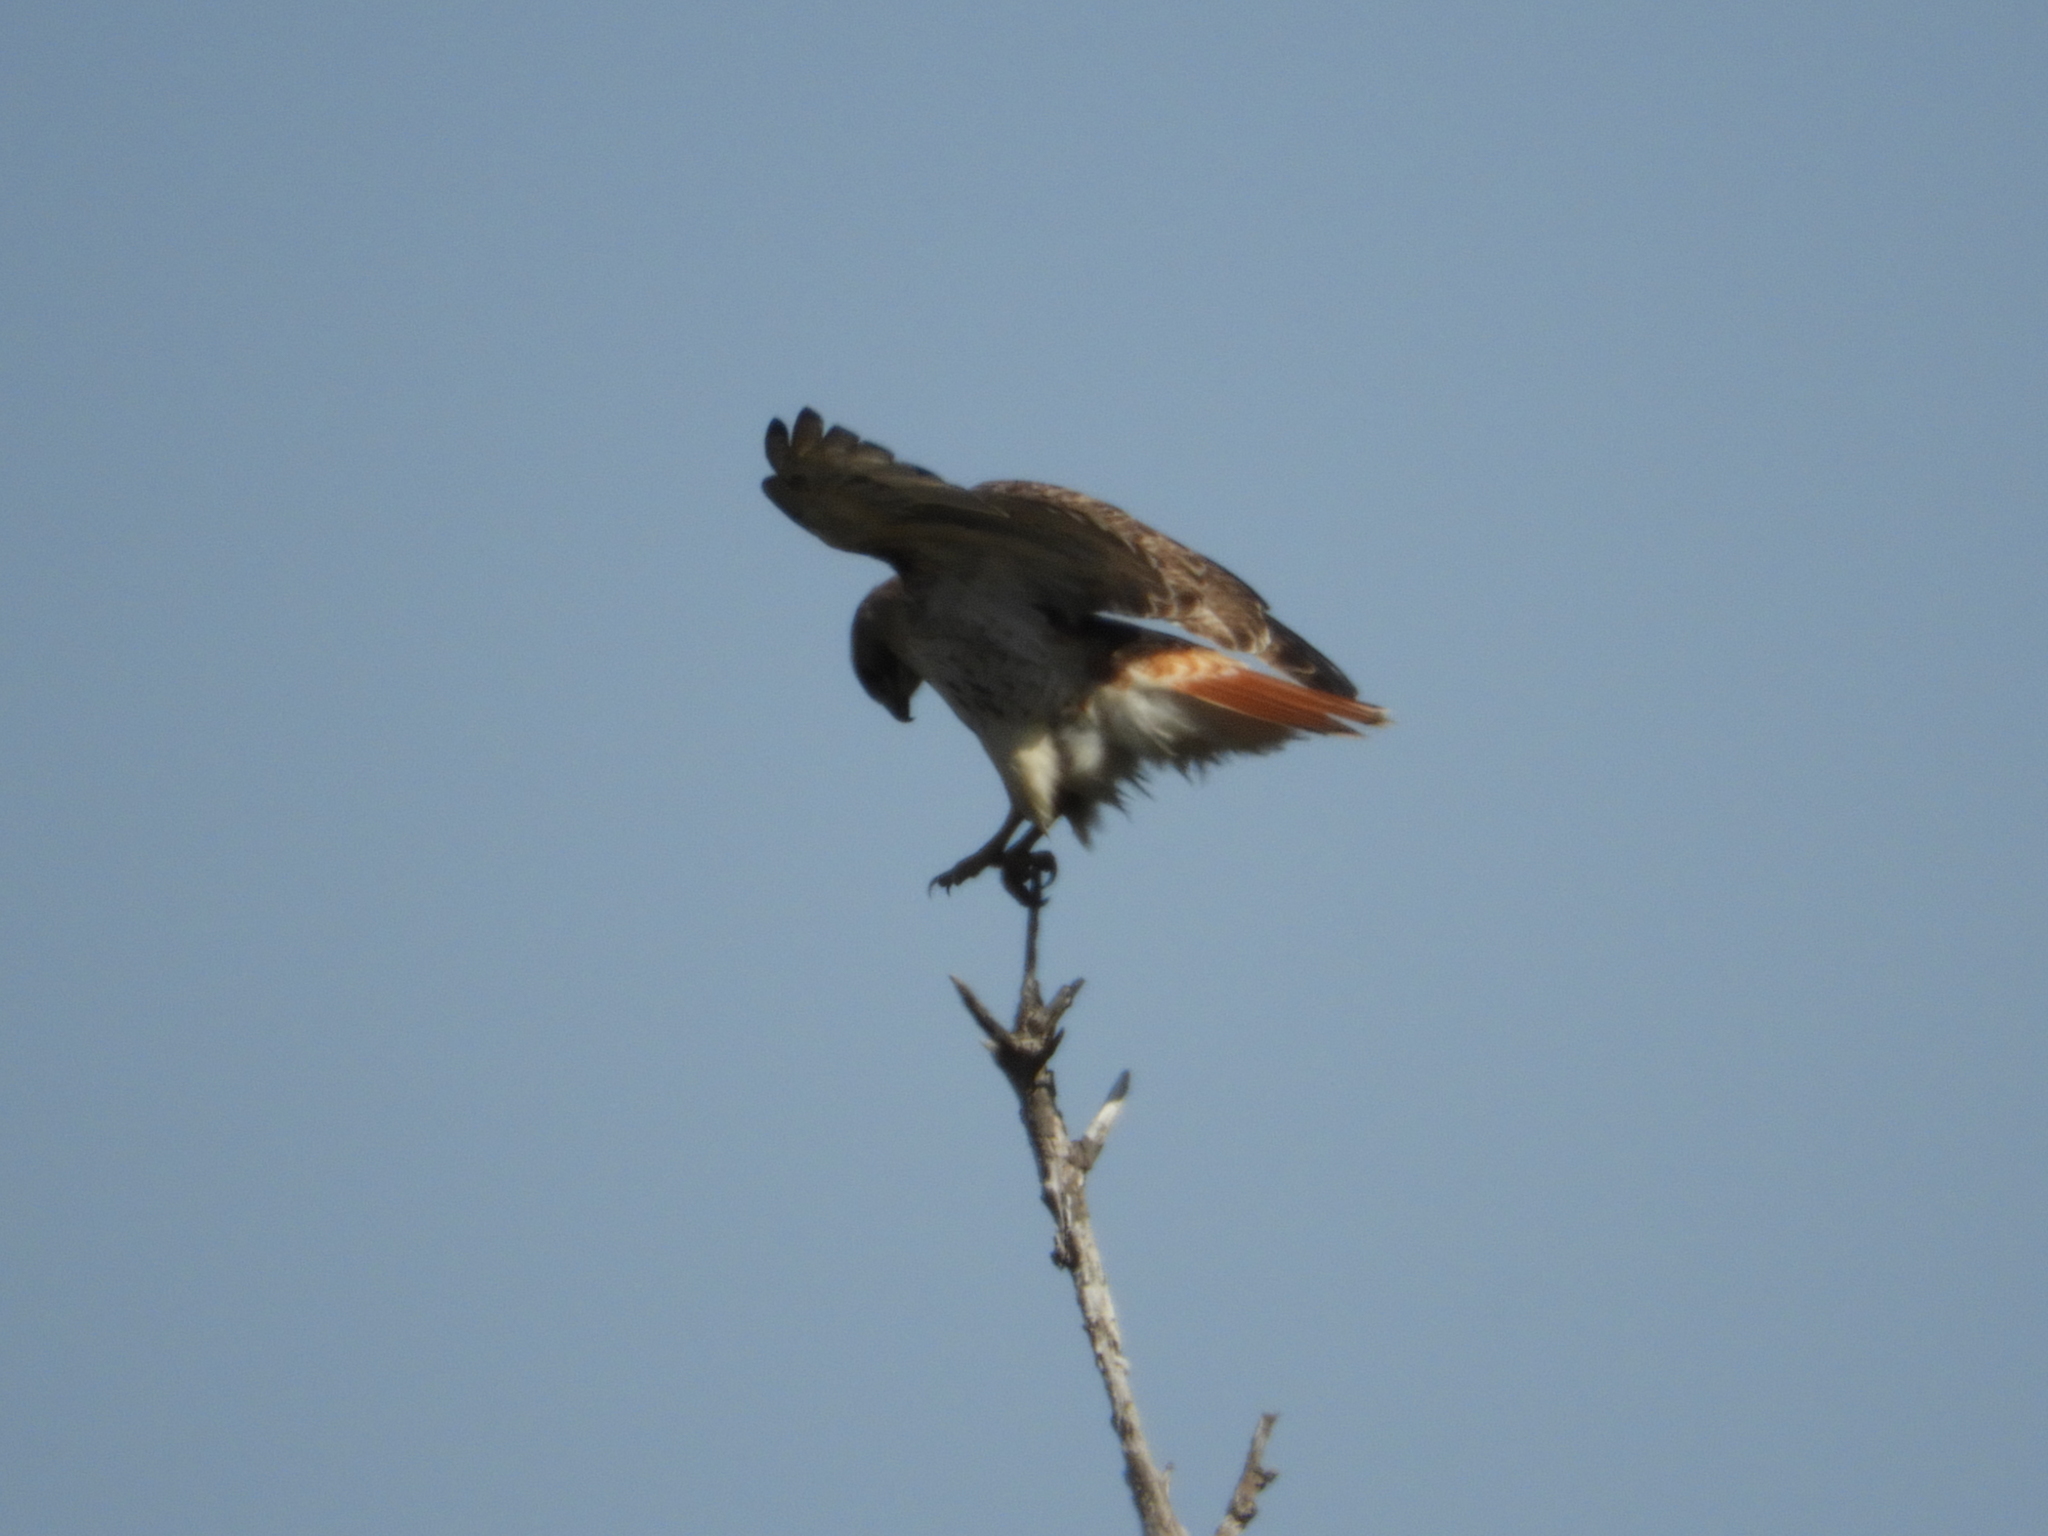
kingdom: Animalia
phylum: Chordata
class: Aves
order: Accipitriformes
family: Accipitridae
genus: Buteo
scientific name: Buteo jamaicensis
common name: Red-tailed hawk
